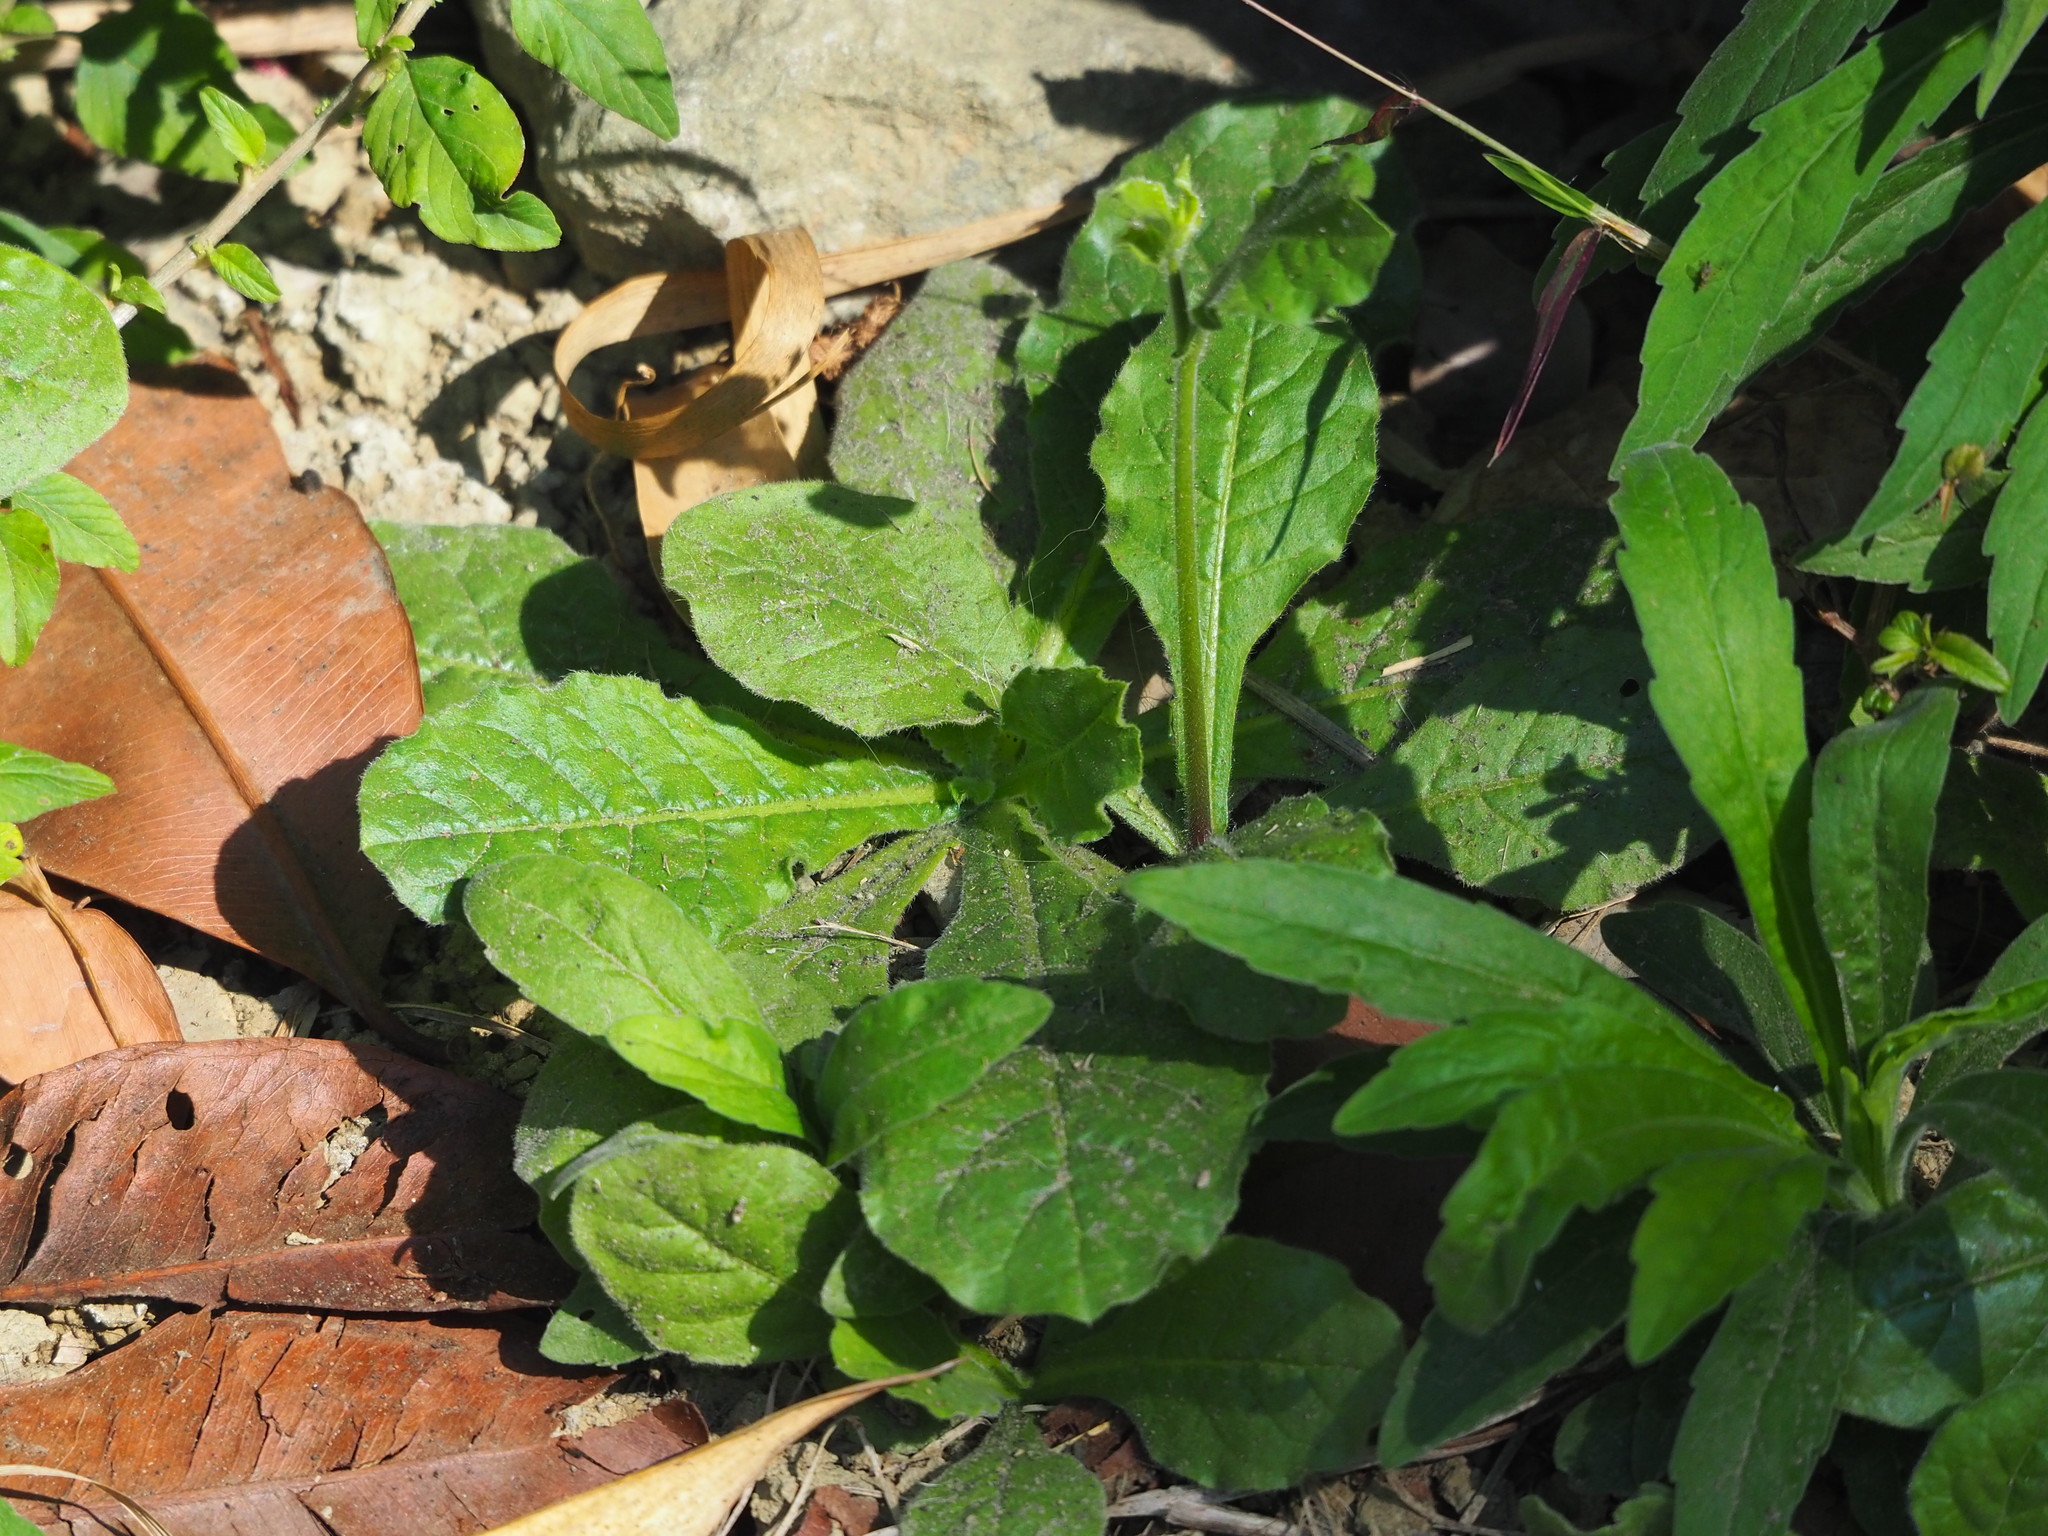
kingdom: Plantae
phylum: Tracheophyta
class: Magnoliopsida
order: Solanales
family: Solanaceae
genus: Nicotiana
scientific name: Nicotiana plumbaginifolia
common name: Tex-mex tobacco
